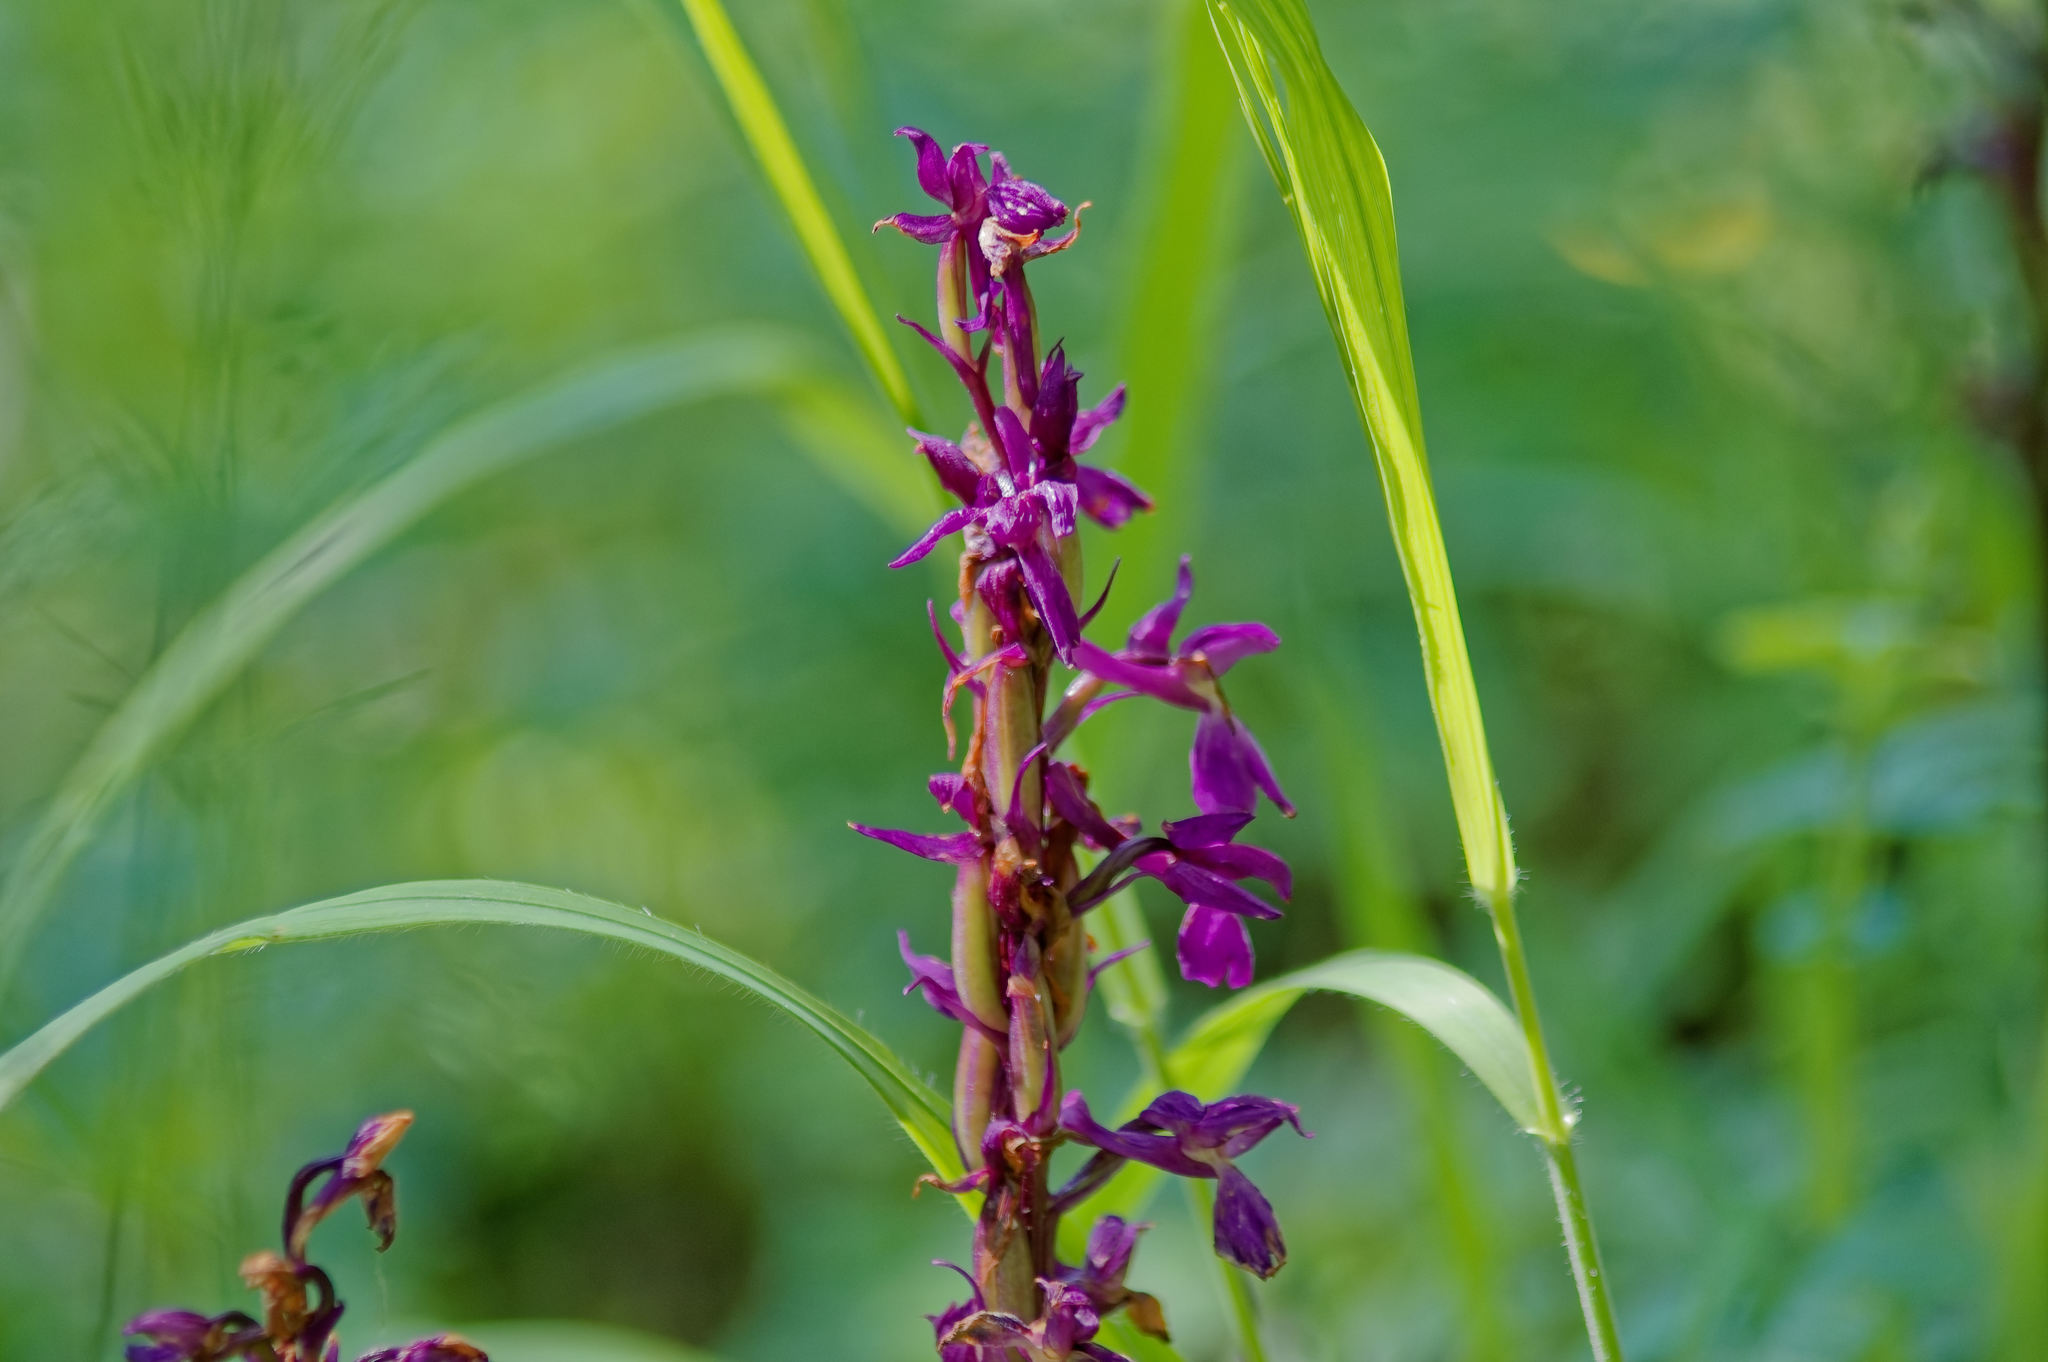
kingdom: Plantae
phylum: Tracheophyta
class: Liliopsida
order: Asparagales
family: Orchidaceae
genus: Orchis
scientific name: Orchis mascula
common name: Early-purple orchid
